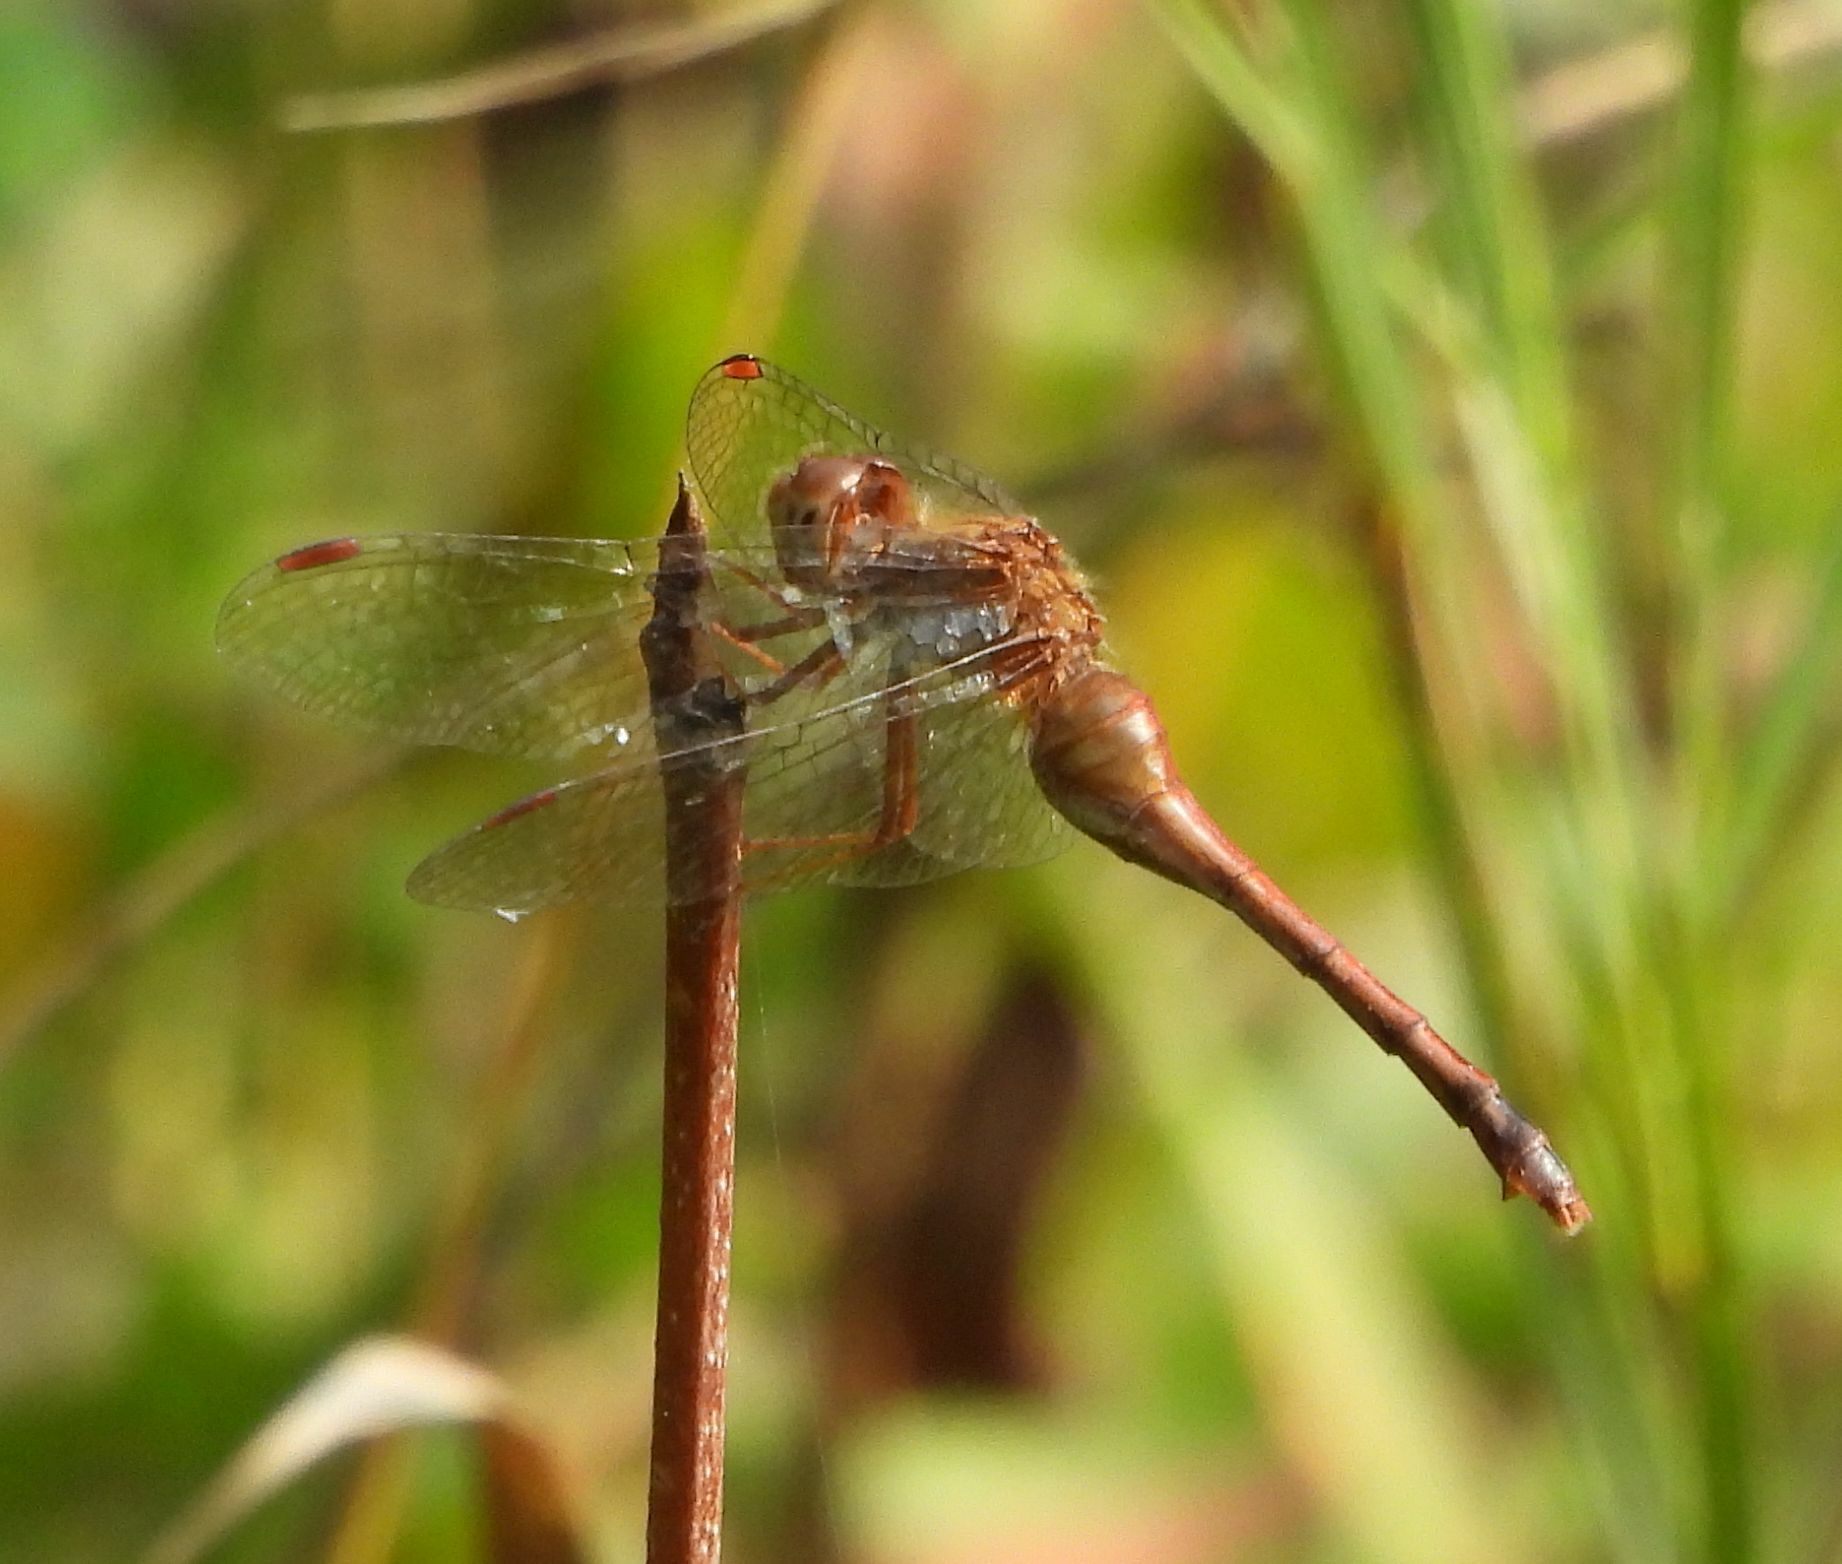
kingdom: Animalia
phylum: Arthropoda
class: Insecta
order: Odonata
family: Libellulidae
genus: Sympetrum
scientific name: Sympetrum vicinum
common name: Autumn meadowhawk
